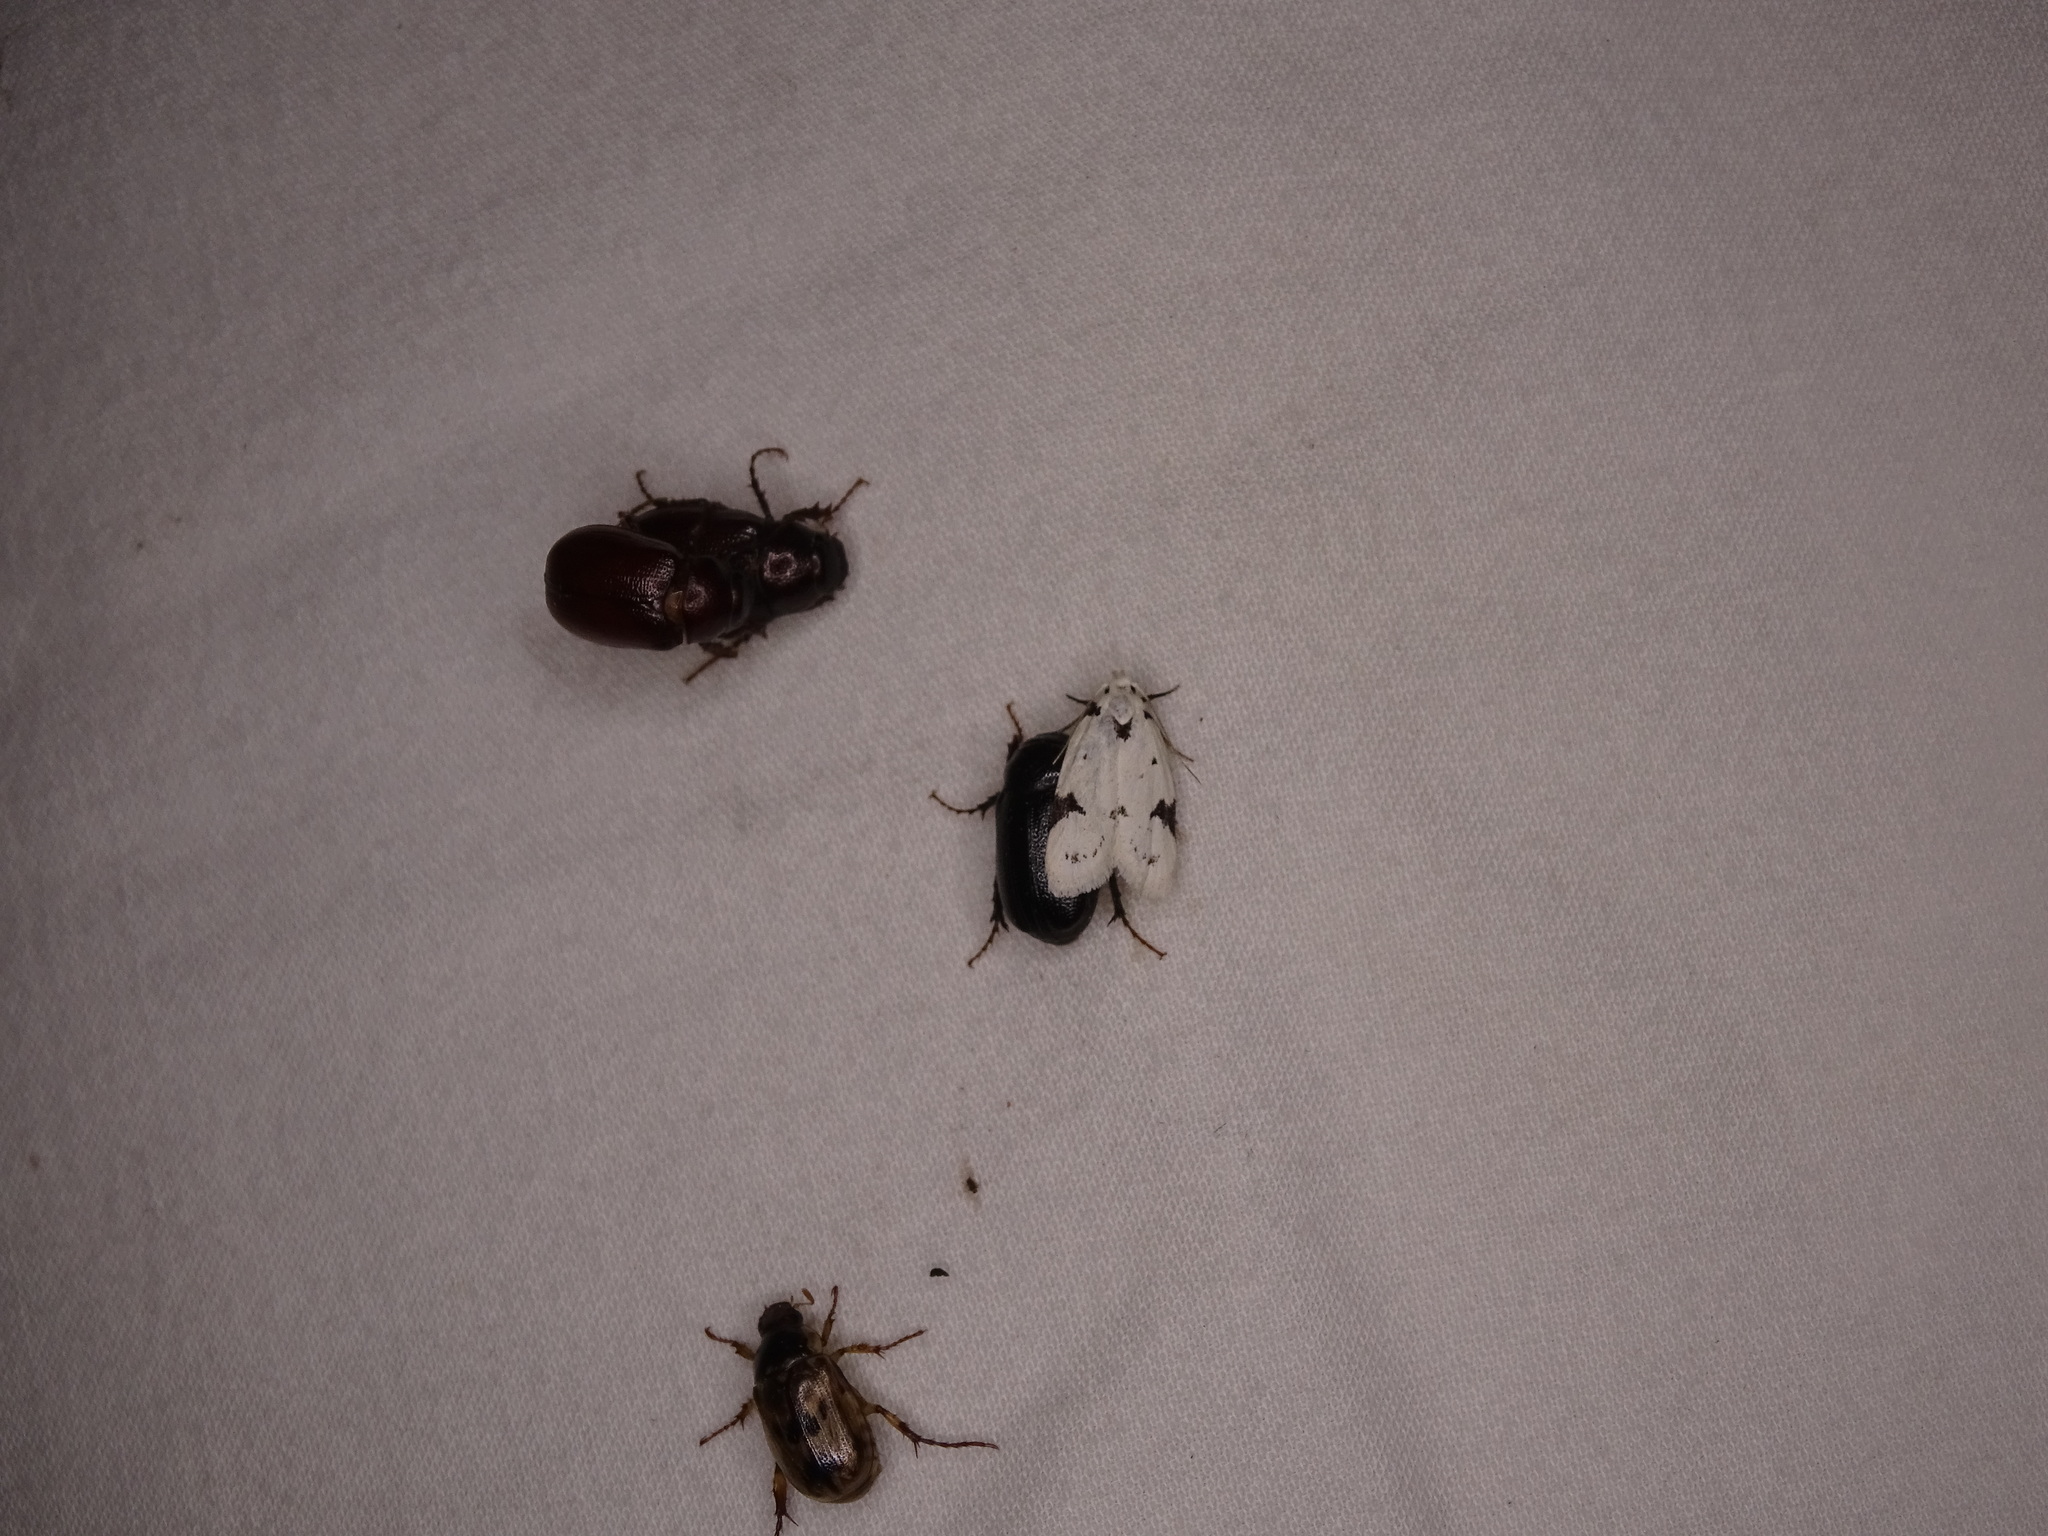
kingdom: Animalia
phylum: Arthropoda
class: Insecta
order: Lepidoptera
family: Oecophoridae
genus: Inga
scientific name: Inga sparsiciliella
